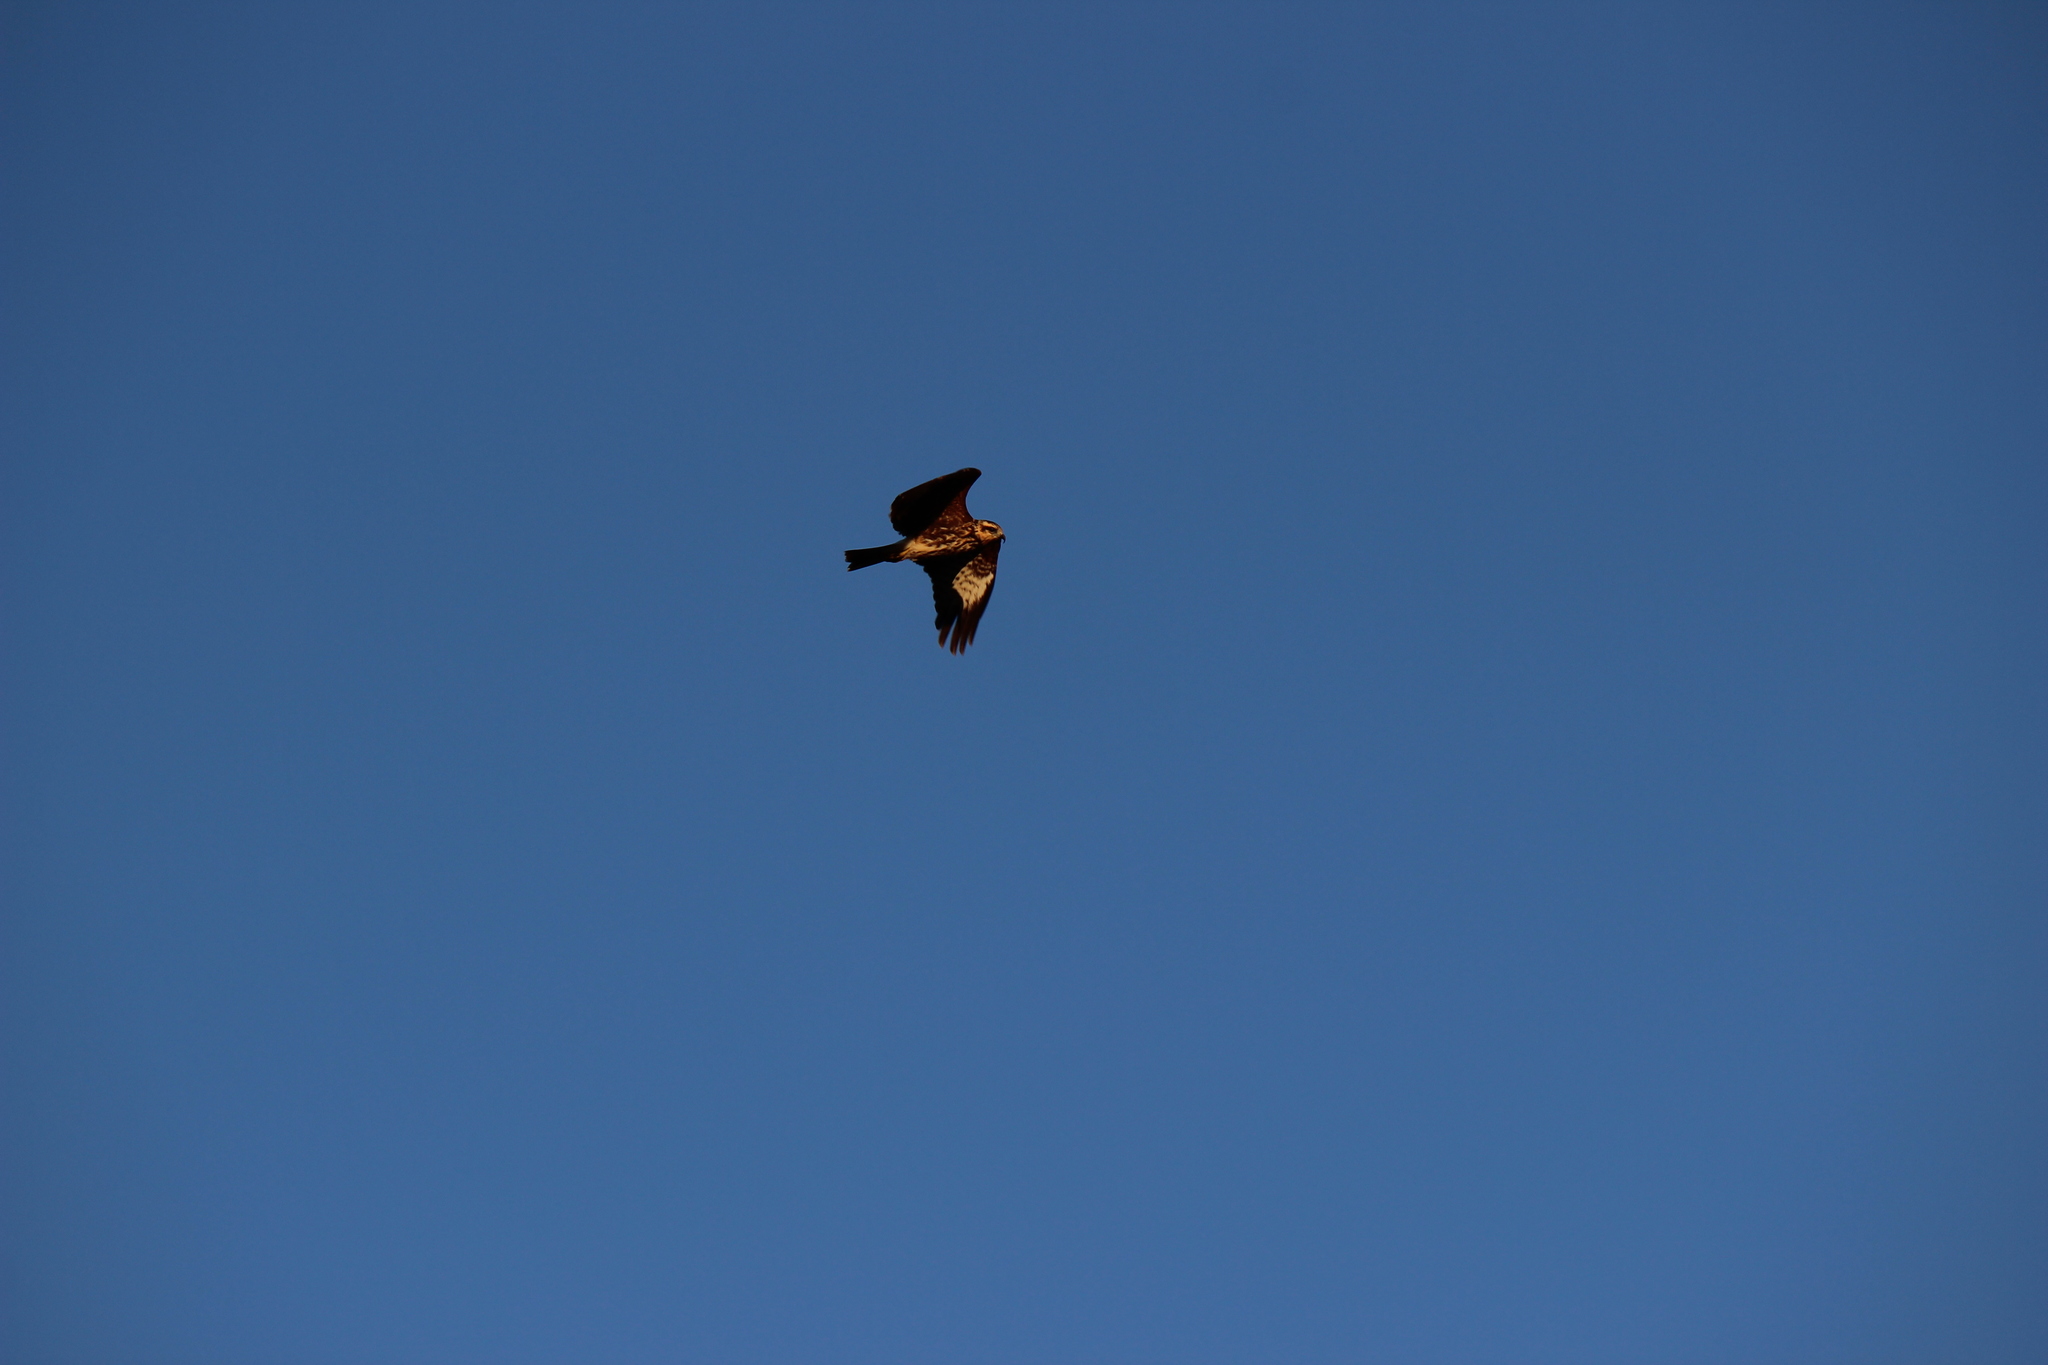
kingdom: Animalia
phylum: Chordata
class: Aves
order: Accipitriformes
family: Accipitridae
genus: Rostrhamus
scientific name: Rostrhamus sociabilis
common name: Snail kite
